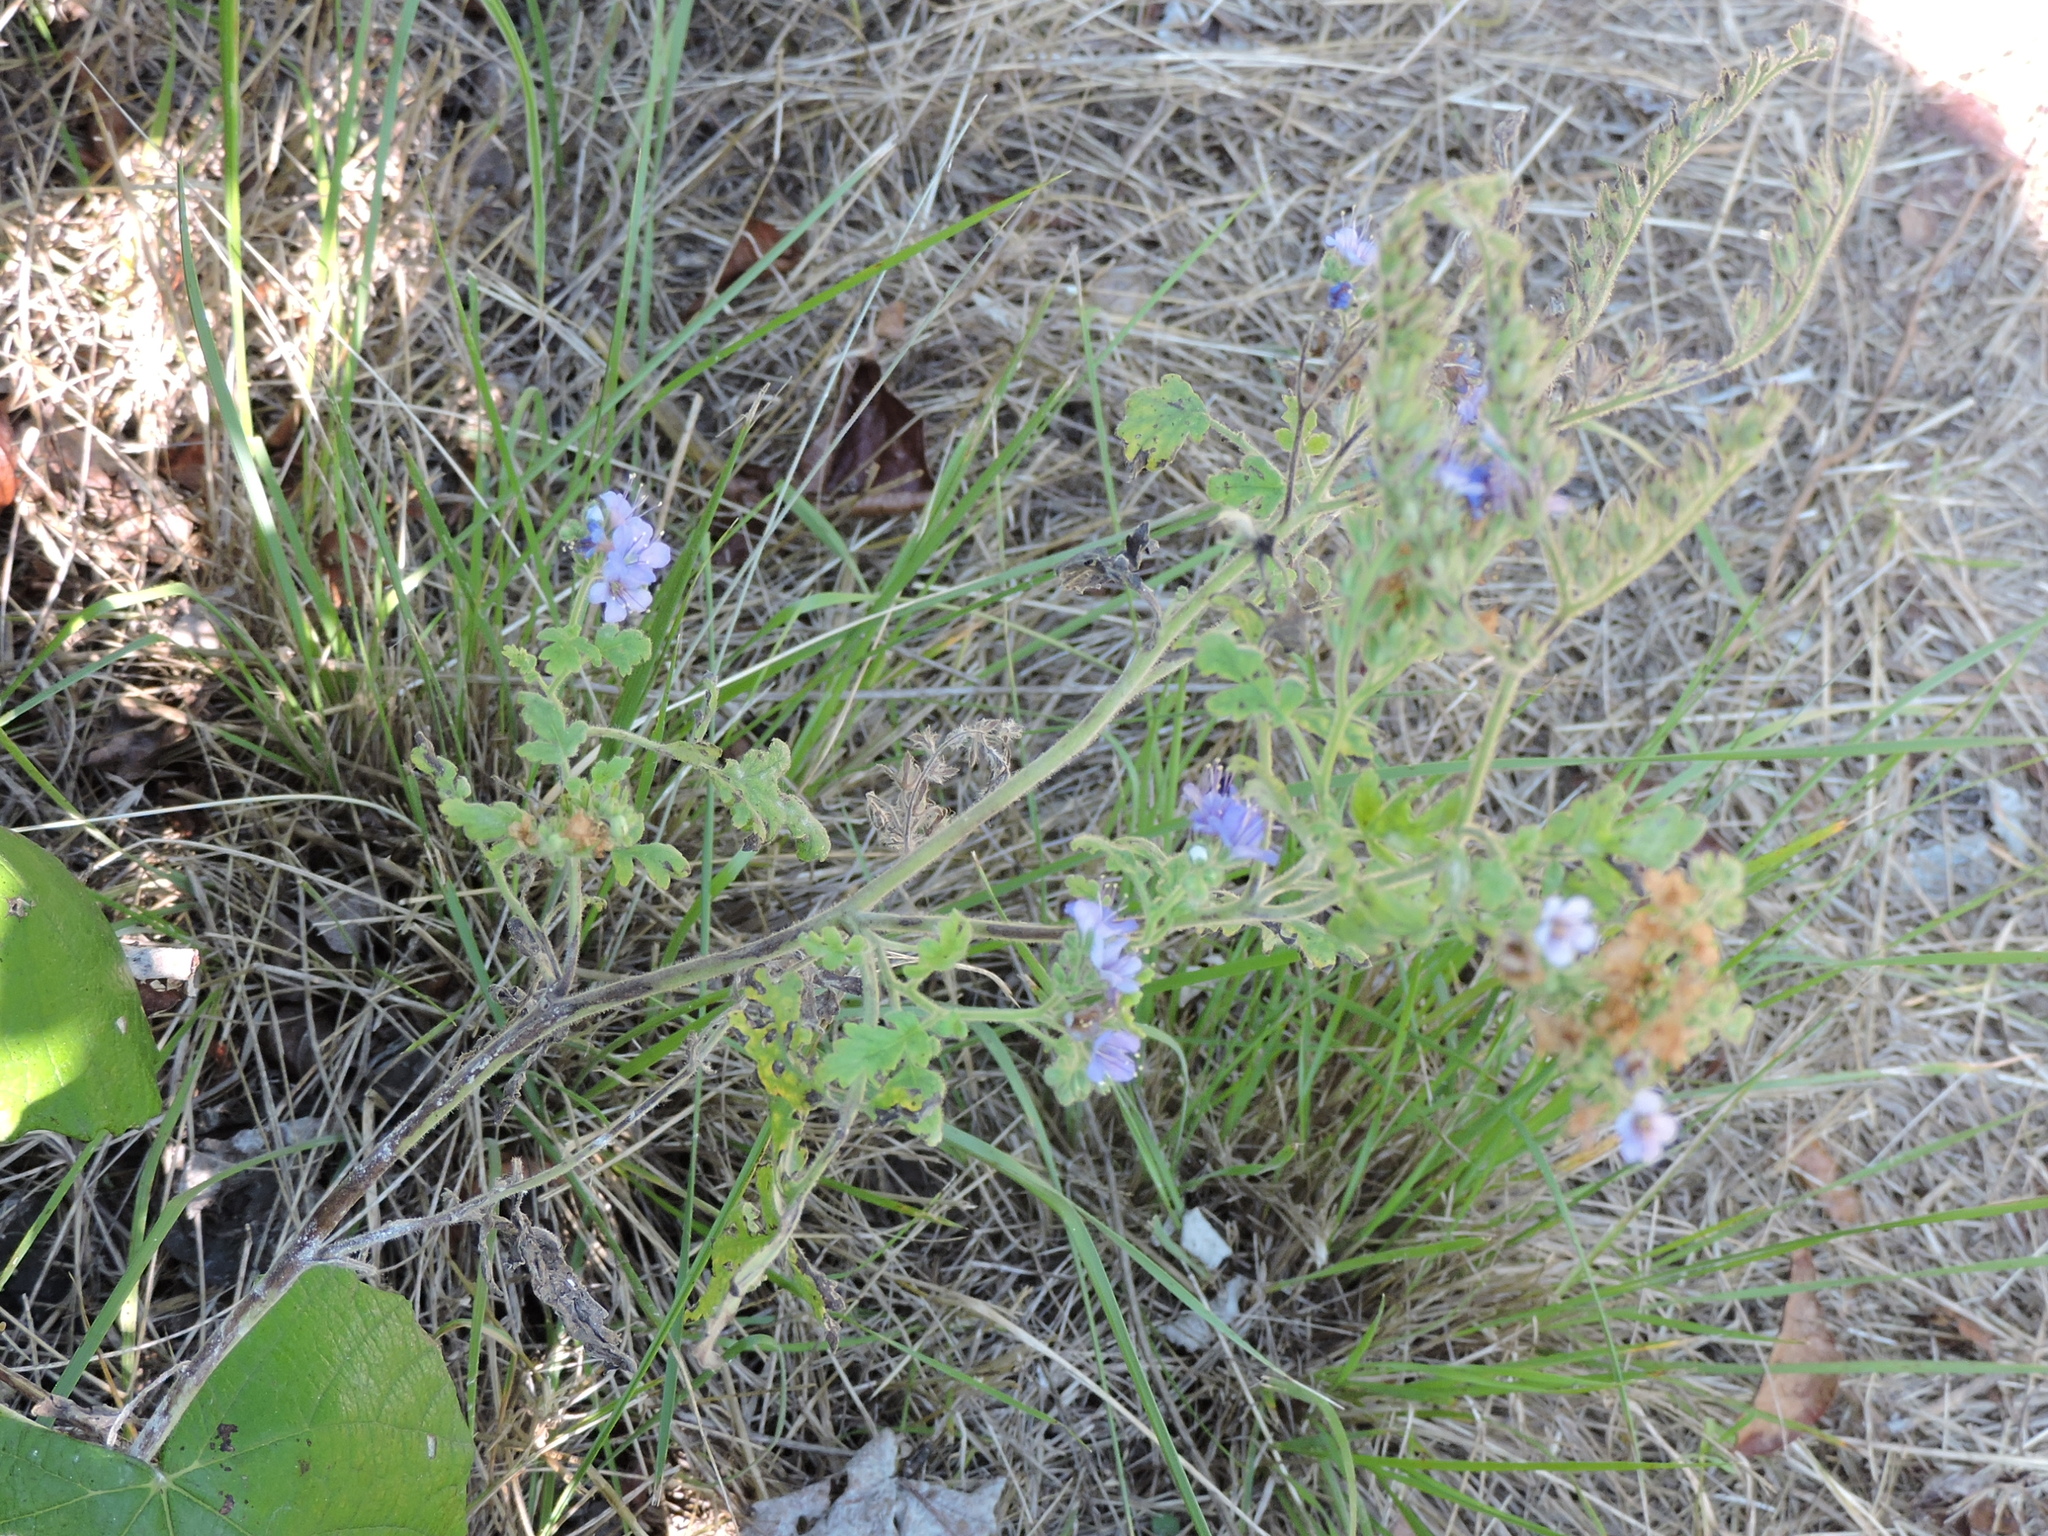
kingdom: Plantae
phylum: Tracheophyta
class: Magnoliopsida
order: Boraginales
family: Hydrophyllaceae
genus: Phacelia
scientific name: Phacelia congesta
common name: Blue curls
